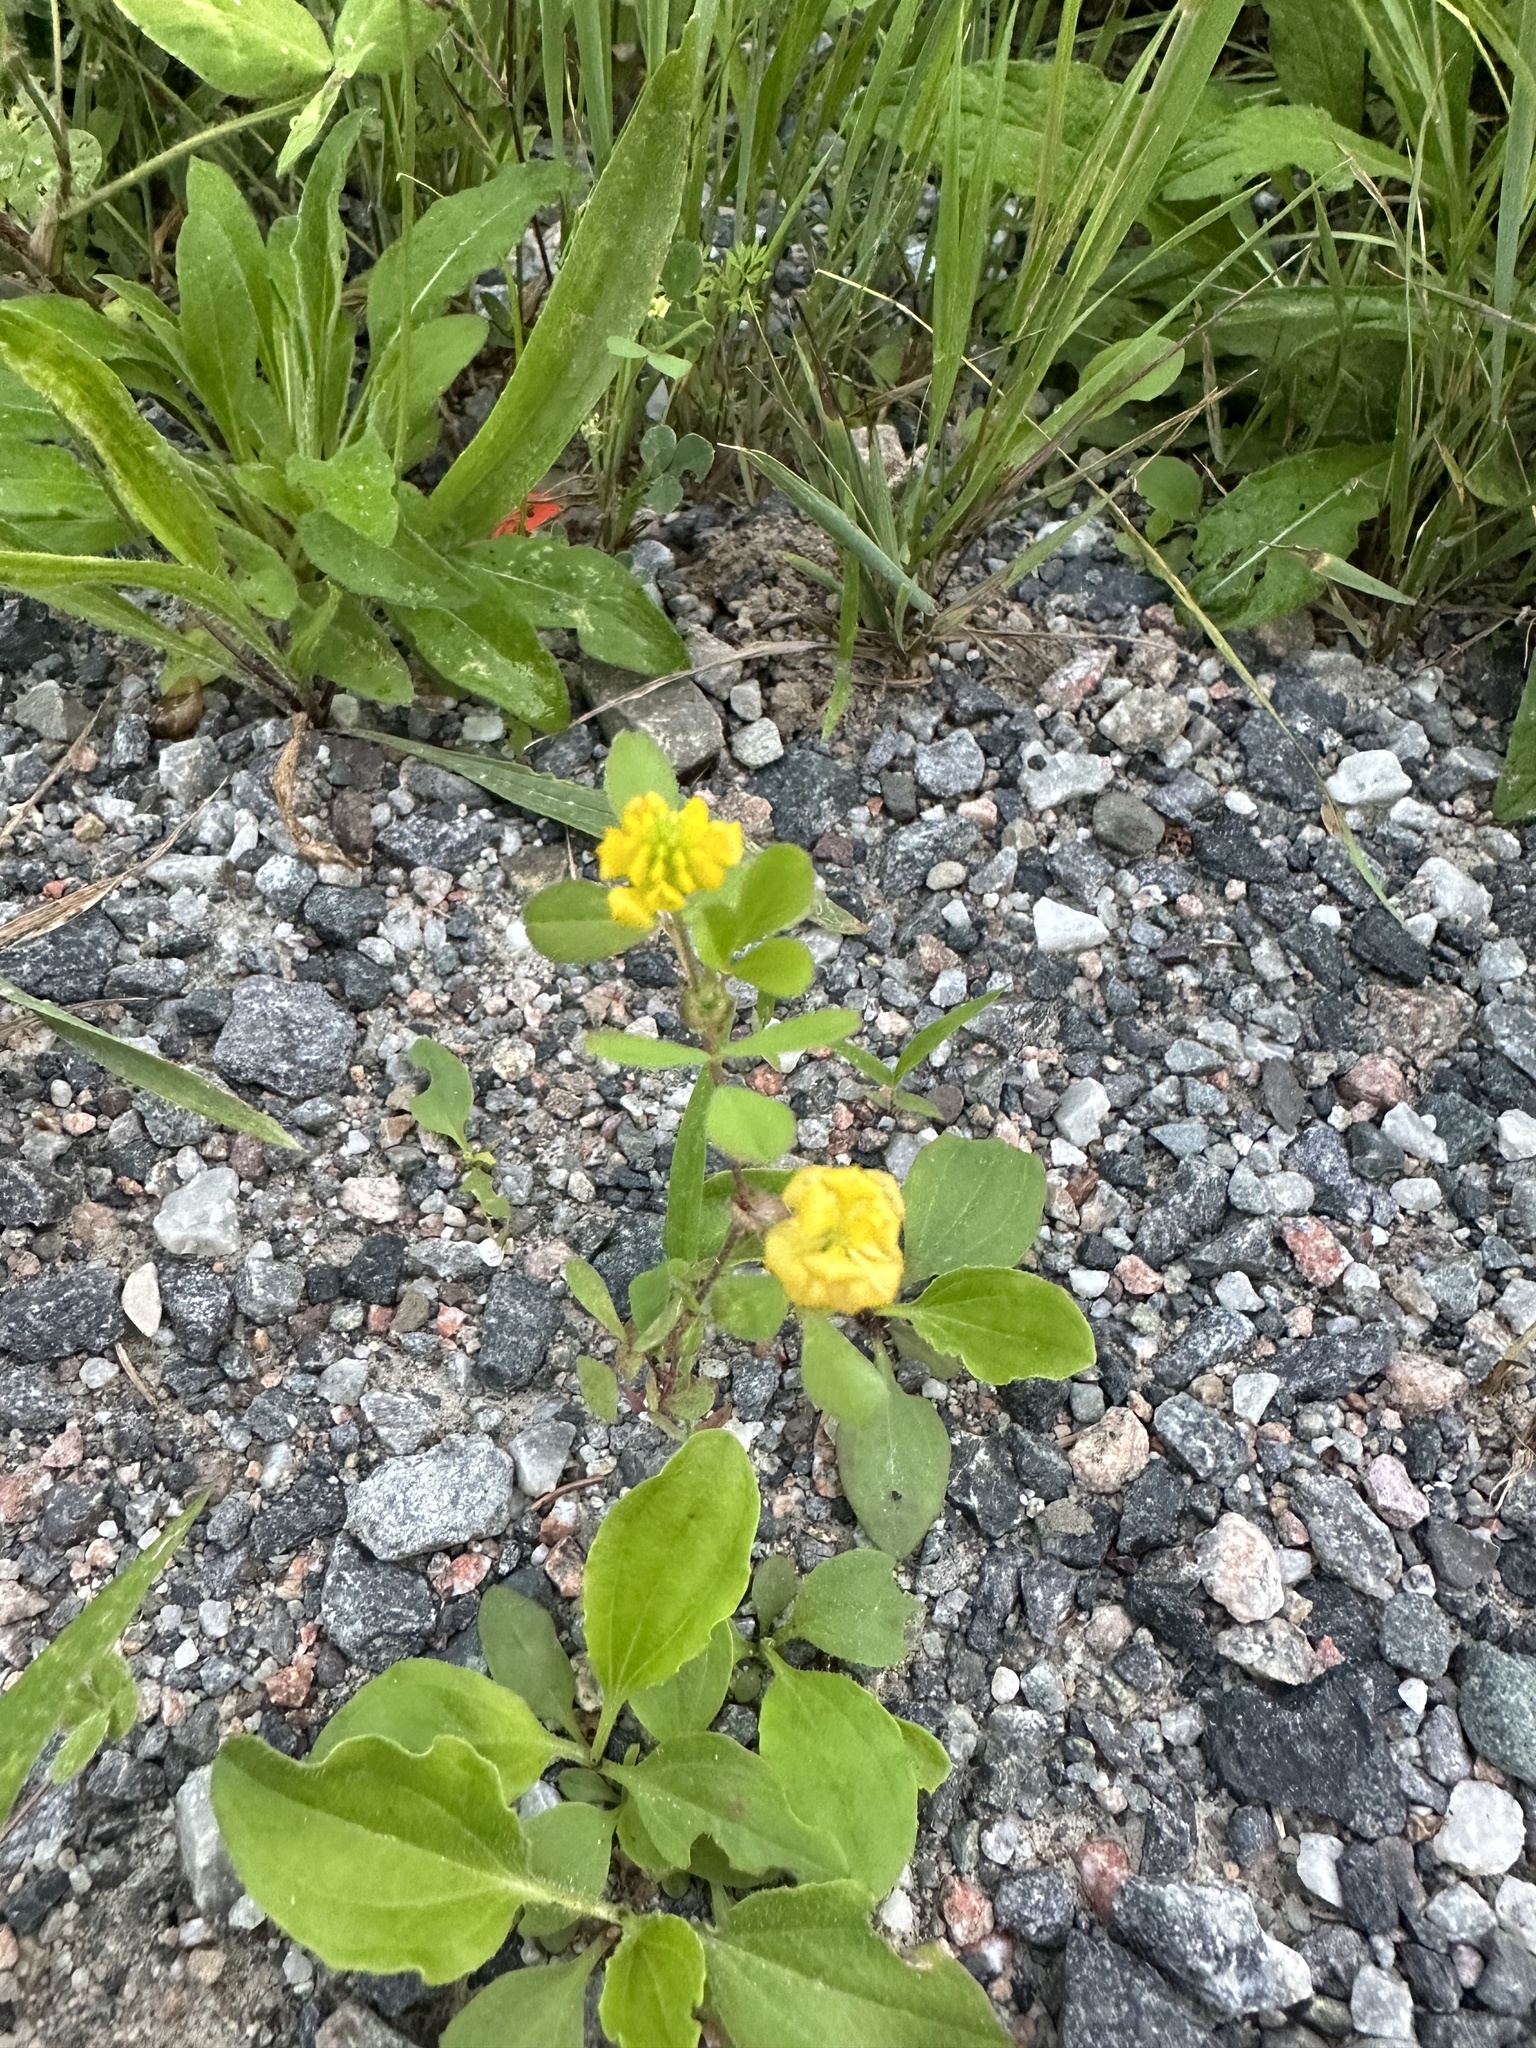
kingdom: Plantae
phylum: Tracheophyta
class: Magnoliopsida
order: Fabales
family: Fabaceae
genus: Trifolium
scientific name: Trifolium campestre
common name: Field clover
